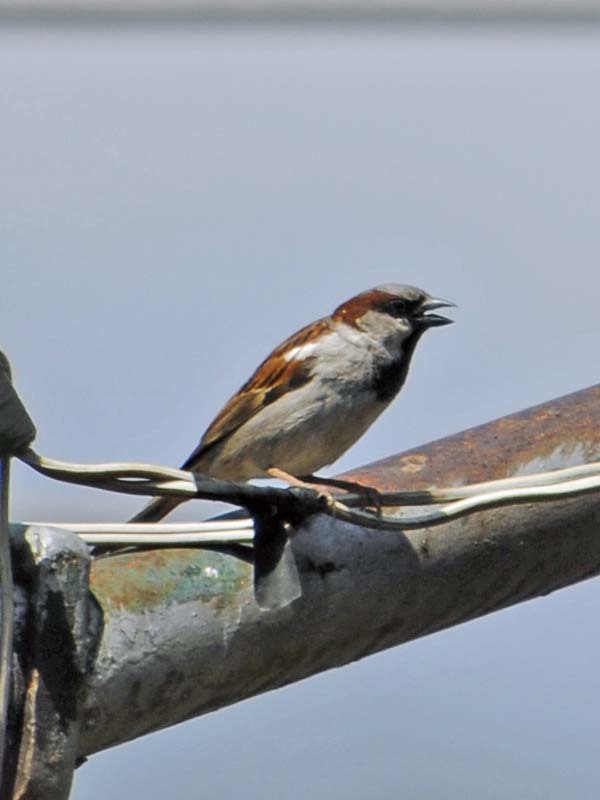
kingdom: Animalia
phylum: Chordata
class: Aves
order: Passeriformes
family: Passeridae
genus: Passer
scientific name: Passer domesticus
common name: House sparrow
